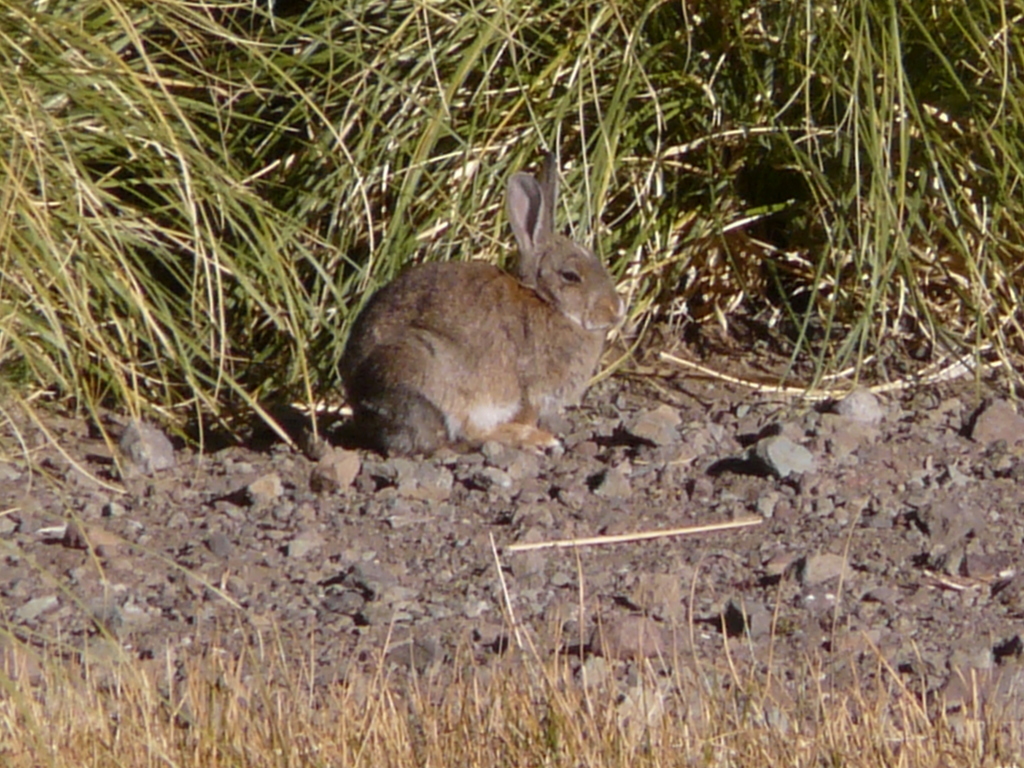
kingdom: Animalia
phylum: Chordata
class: Mammalia
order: Lagomorpha
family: Leporidae
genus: Oryctolagus
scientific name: Oryctolagus cuniculus
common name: European rabbit
